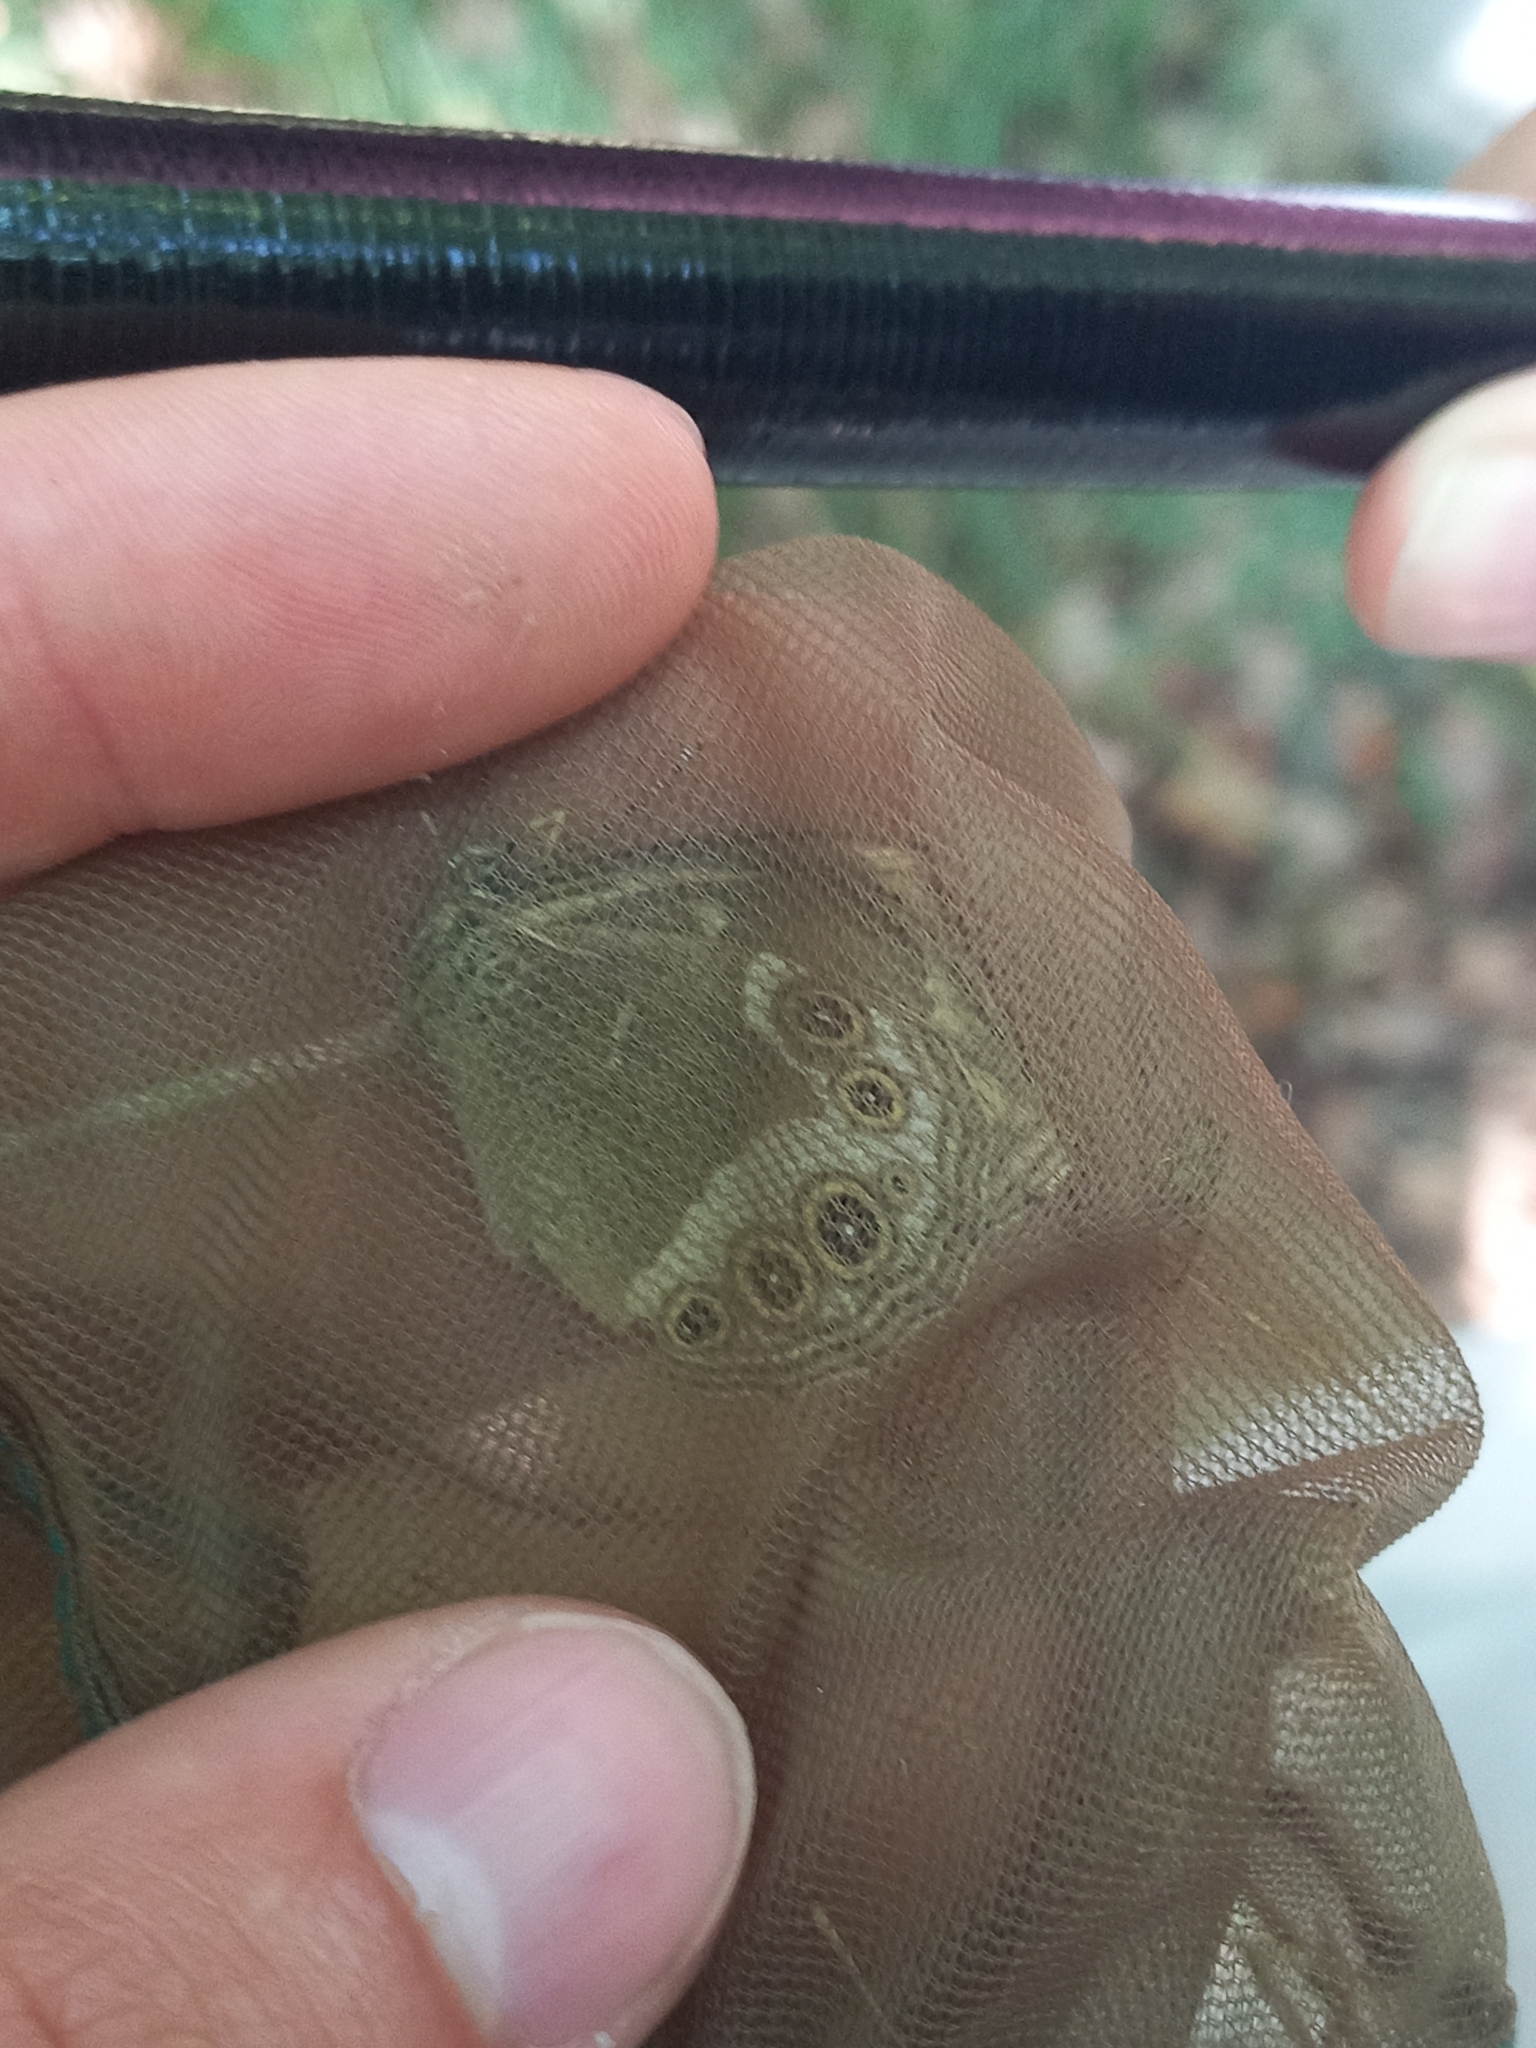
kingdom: Animalia
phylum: Arthropoda
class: Insecta
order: Lepidoptera
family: Nymphalidae
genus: Pararge
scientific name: Pararge Lopinga achine
